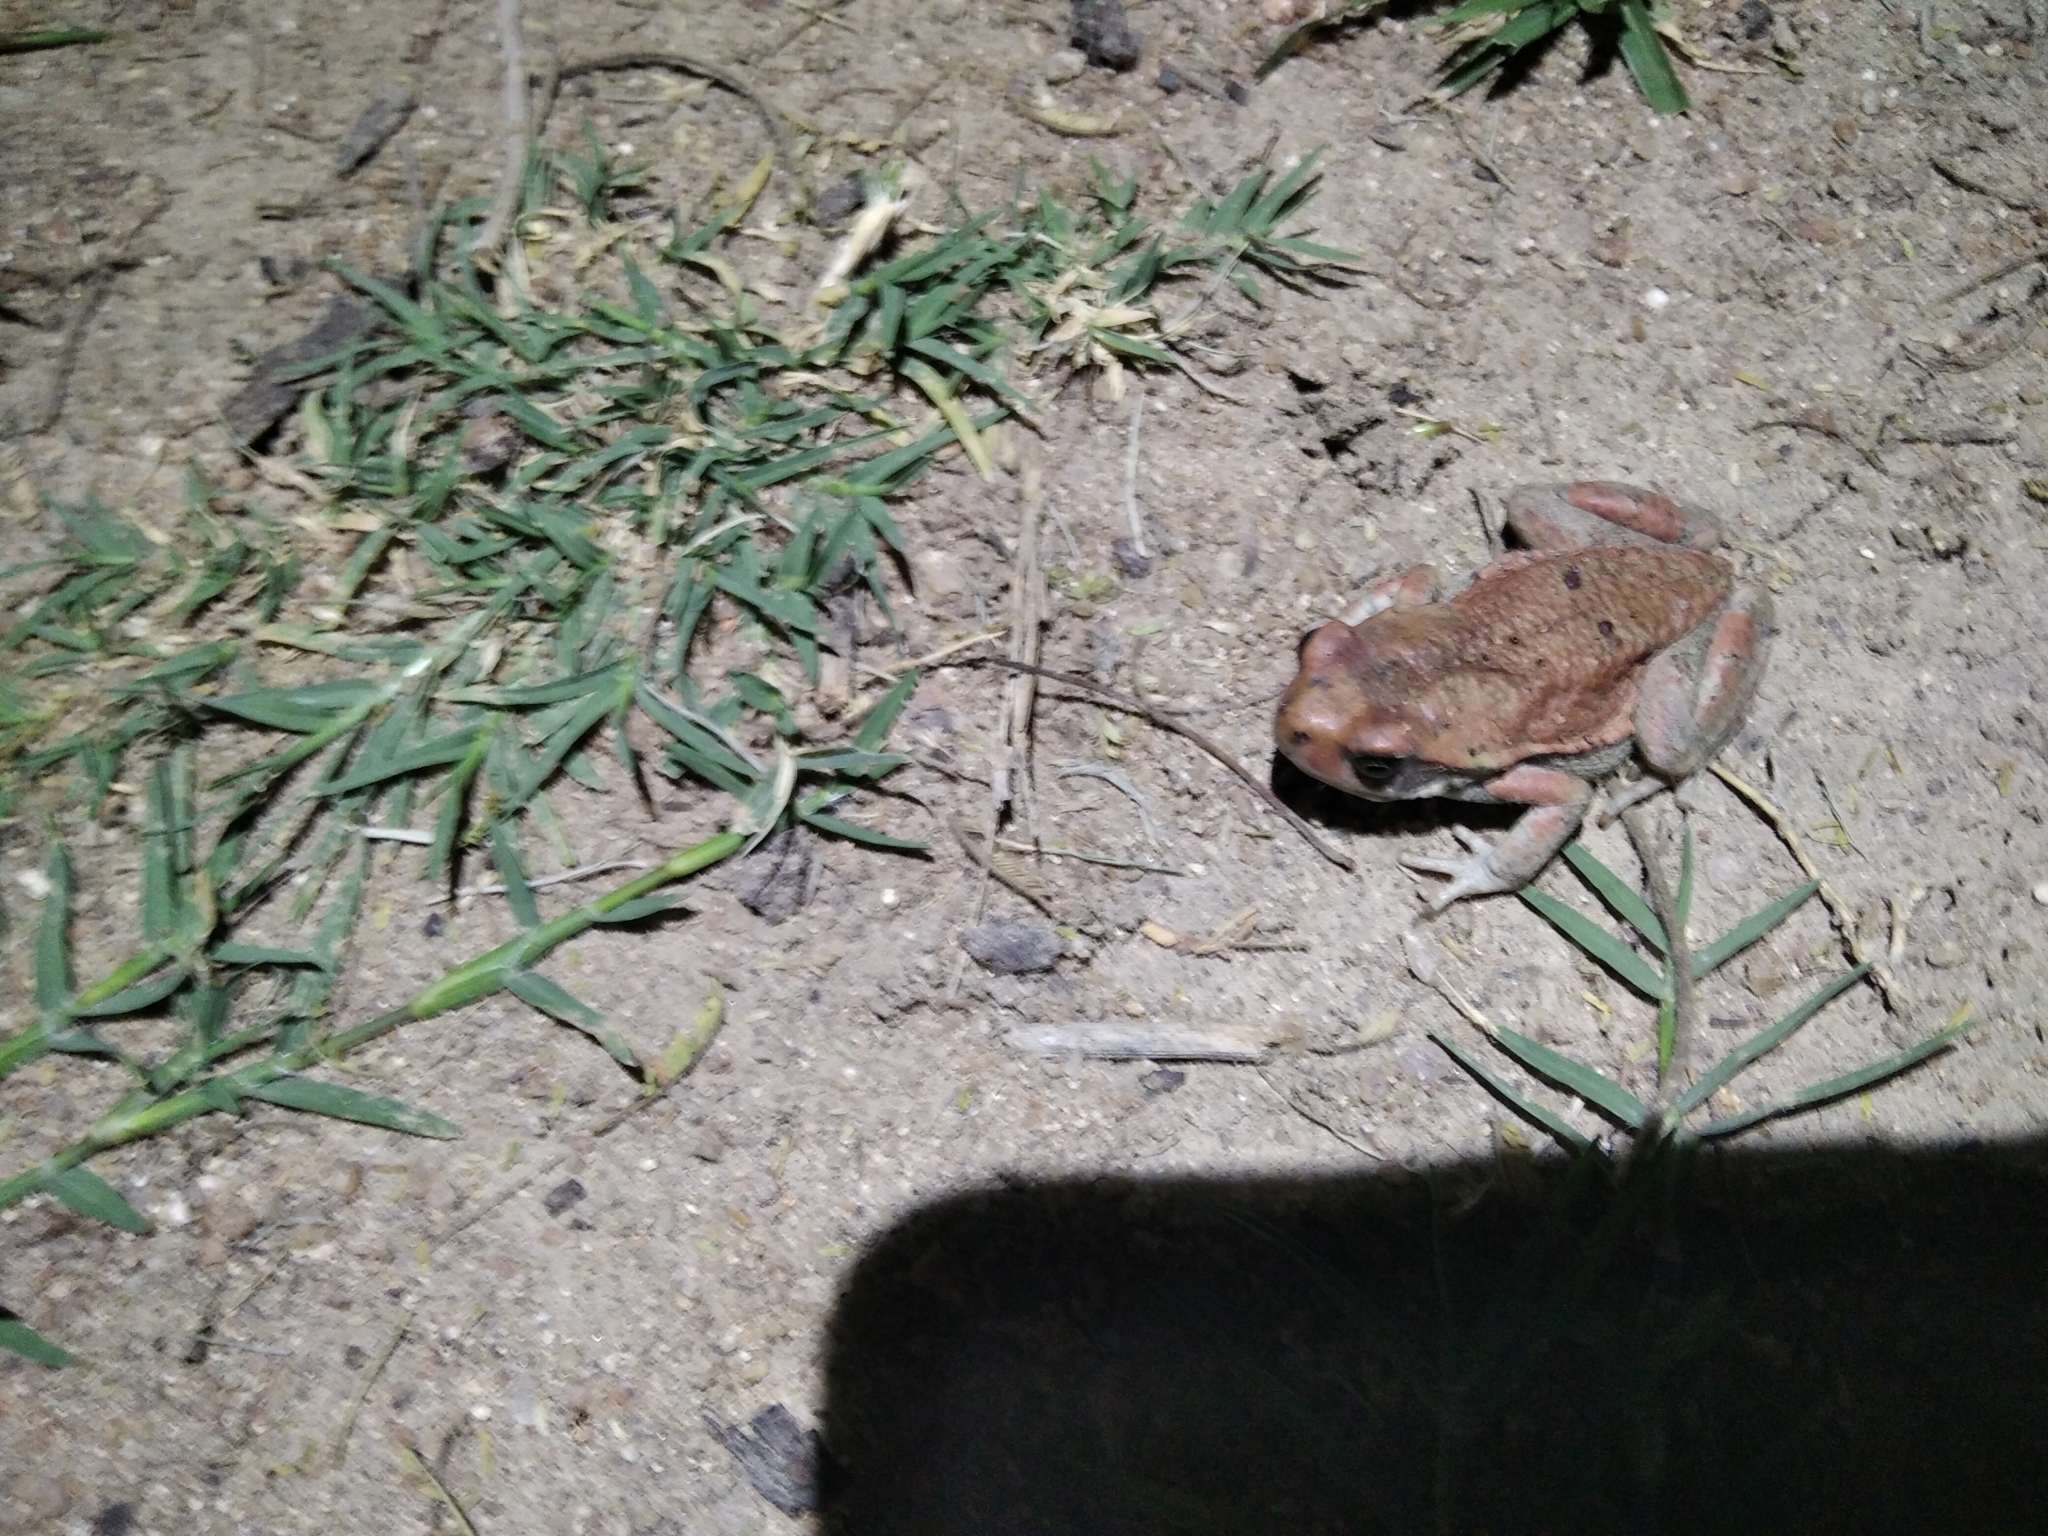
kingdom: Animalia
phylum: Chordata
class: Amphibia
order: Anura
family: Bufonidae
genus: Schismaderma
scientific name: Schismaderma carens
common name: African split-skin toad
